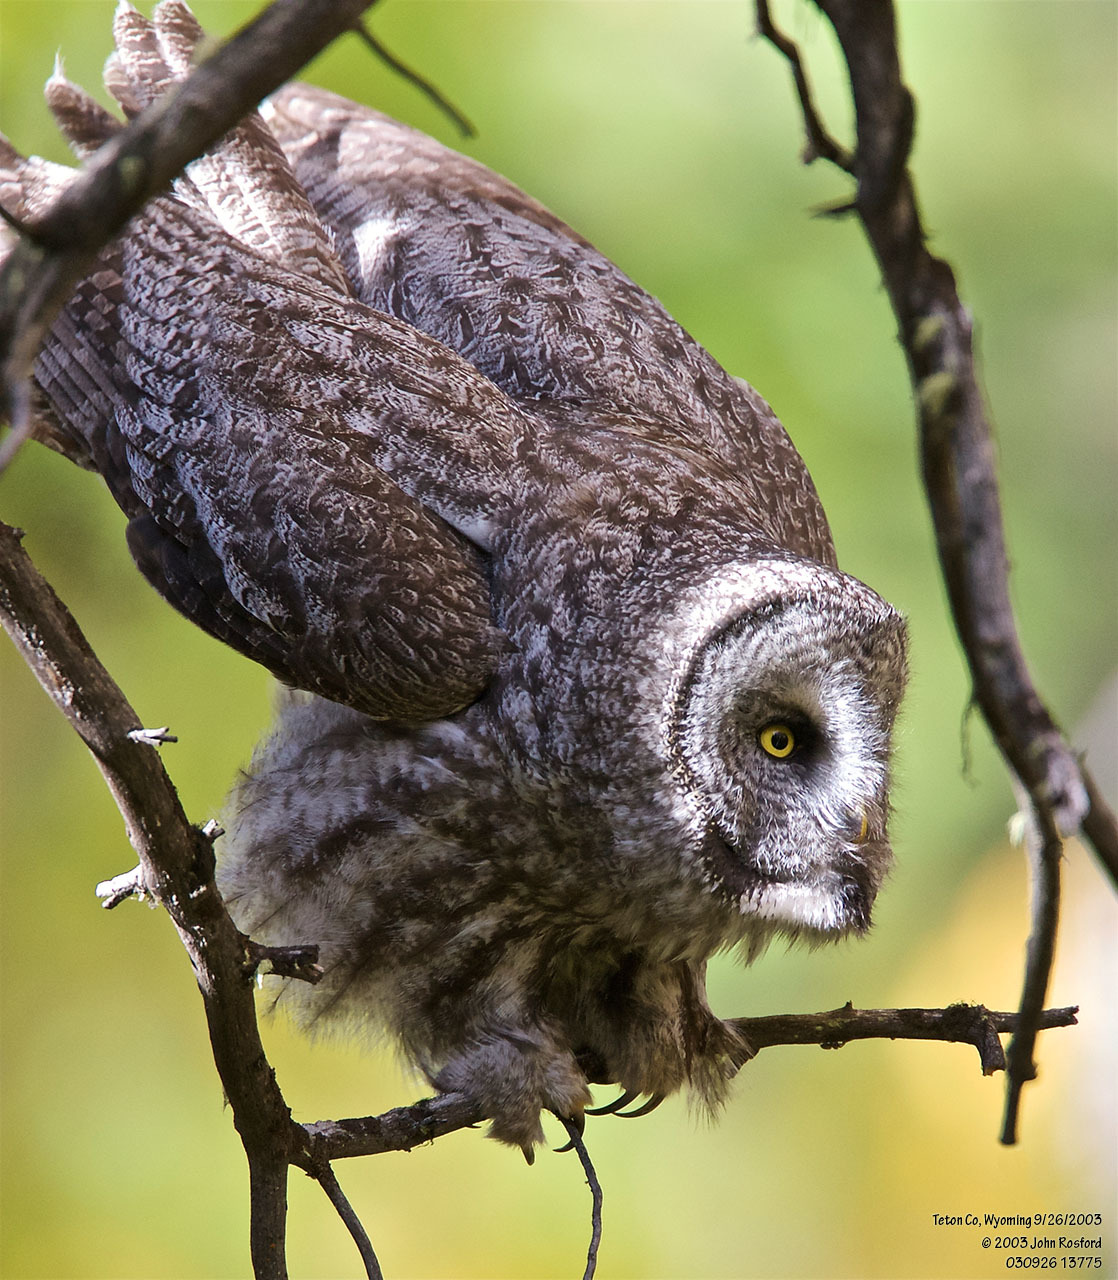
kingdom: Animalia
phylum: Chordata
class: Aves
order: Strigiformes
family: Strigidae
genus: Strix
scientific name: Strix nebulosa
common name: Great grey owl
